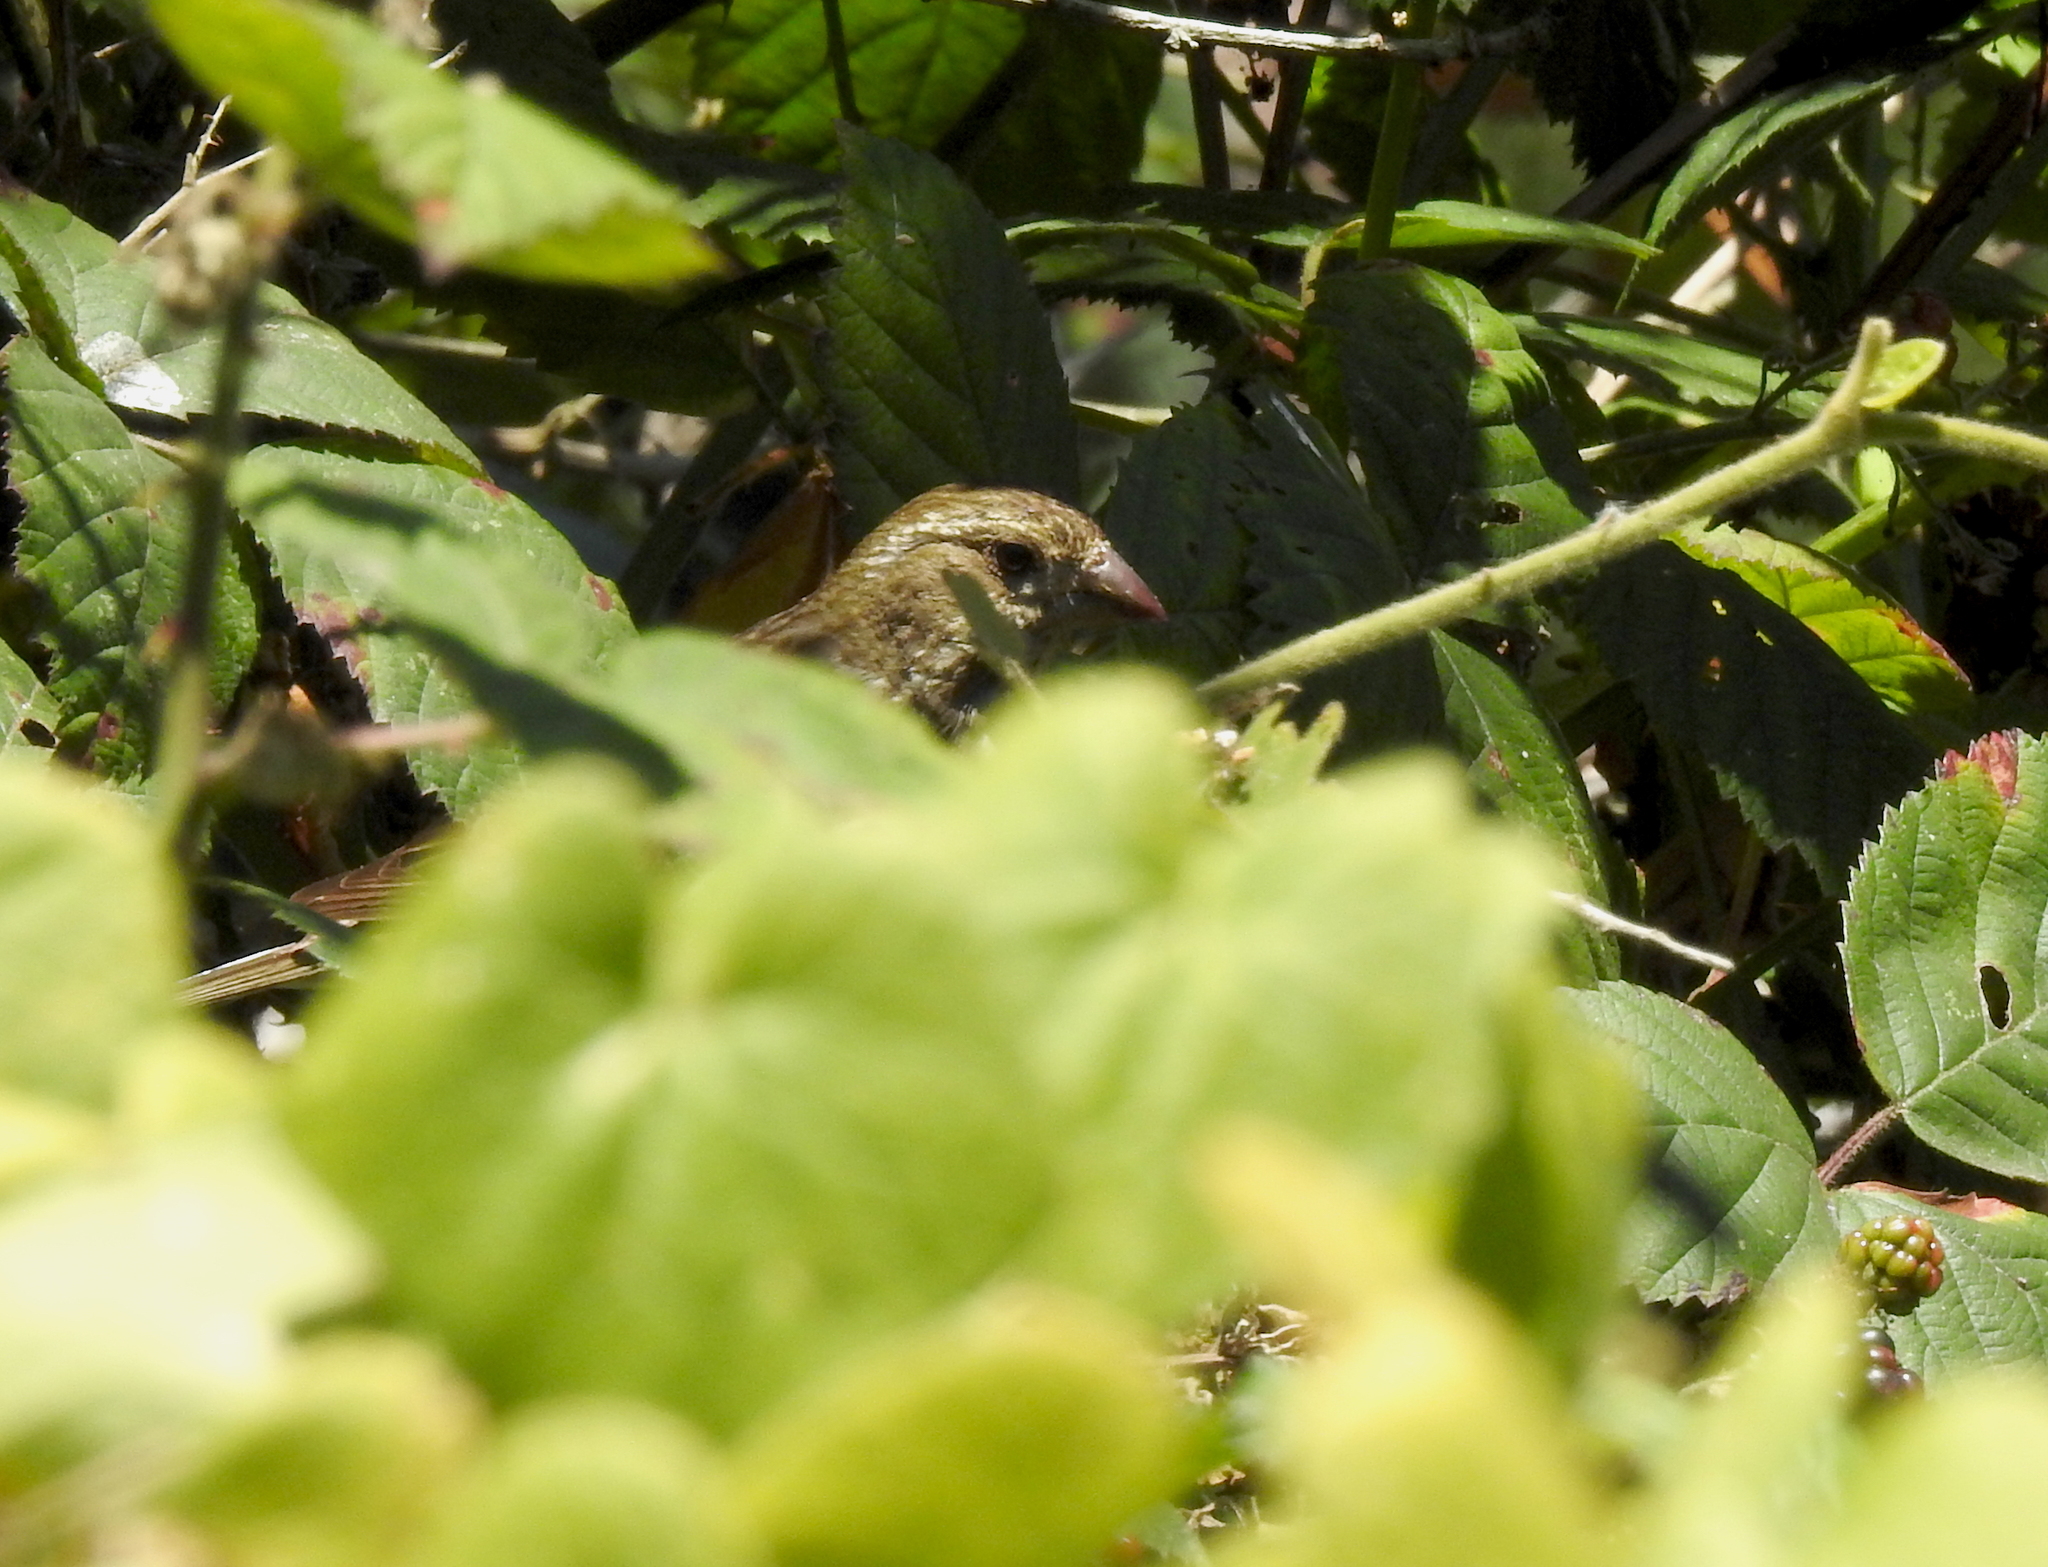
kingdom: Animalia
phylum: Chordata
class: Aves
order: Passeriformes
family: Fringillidae
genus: Haemorhous
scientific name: Haemorhous purpureus
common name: Purple finch
